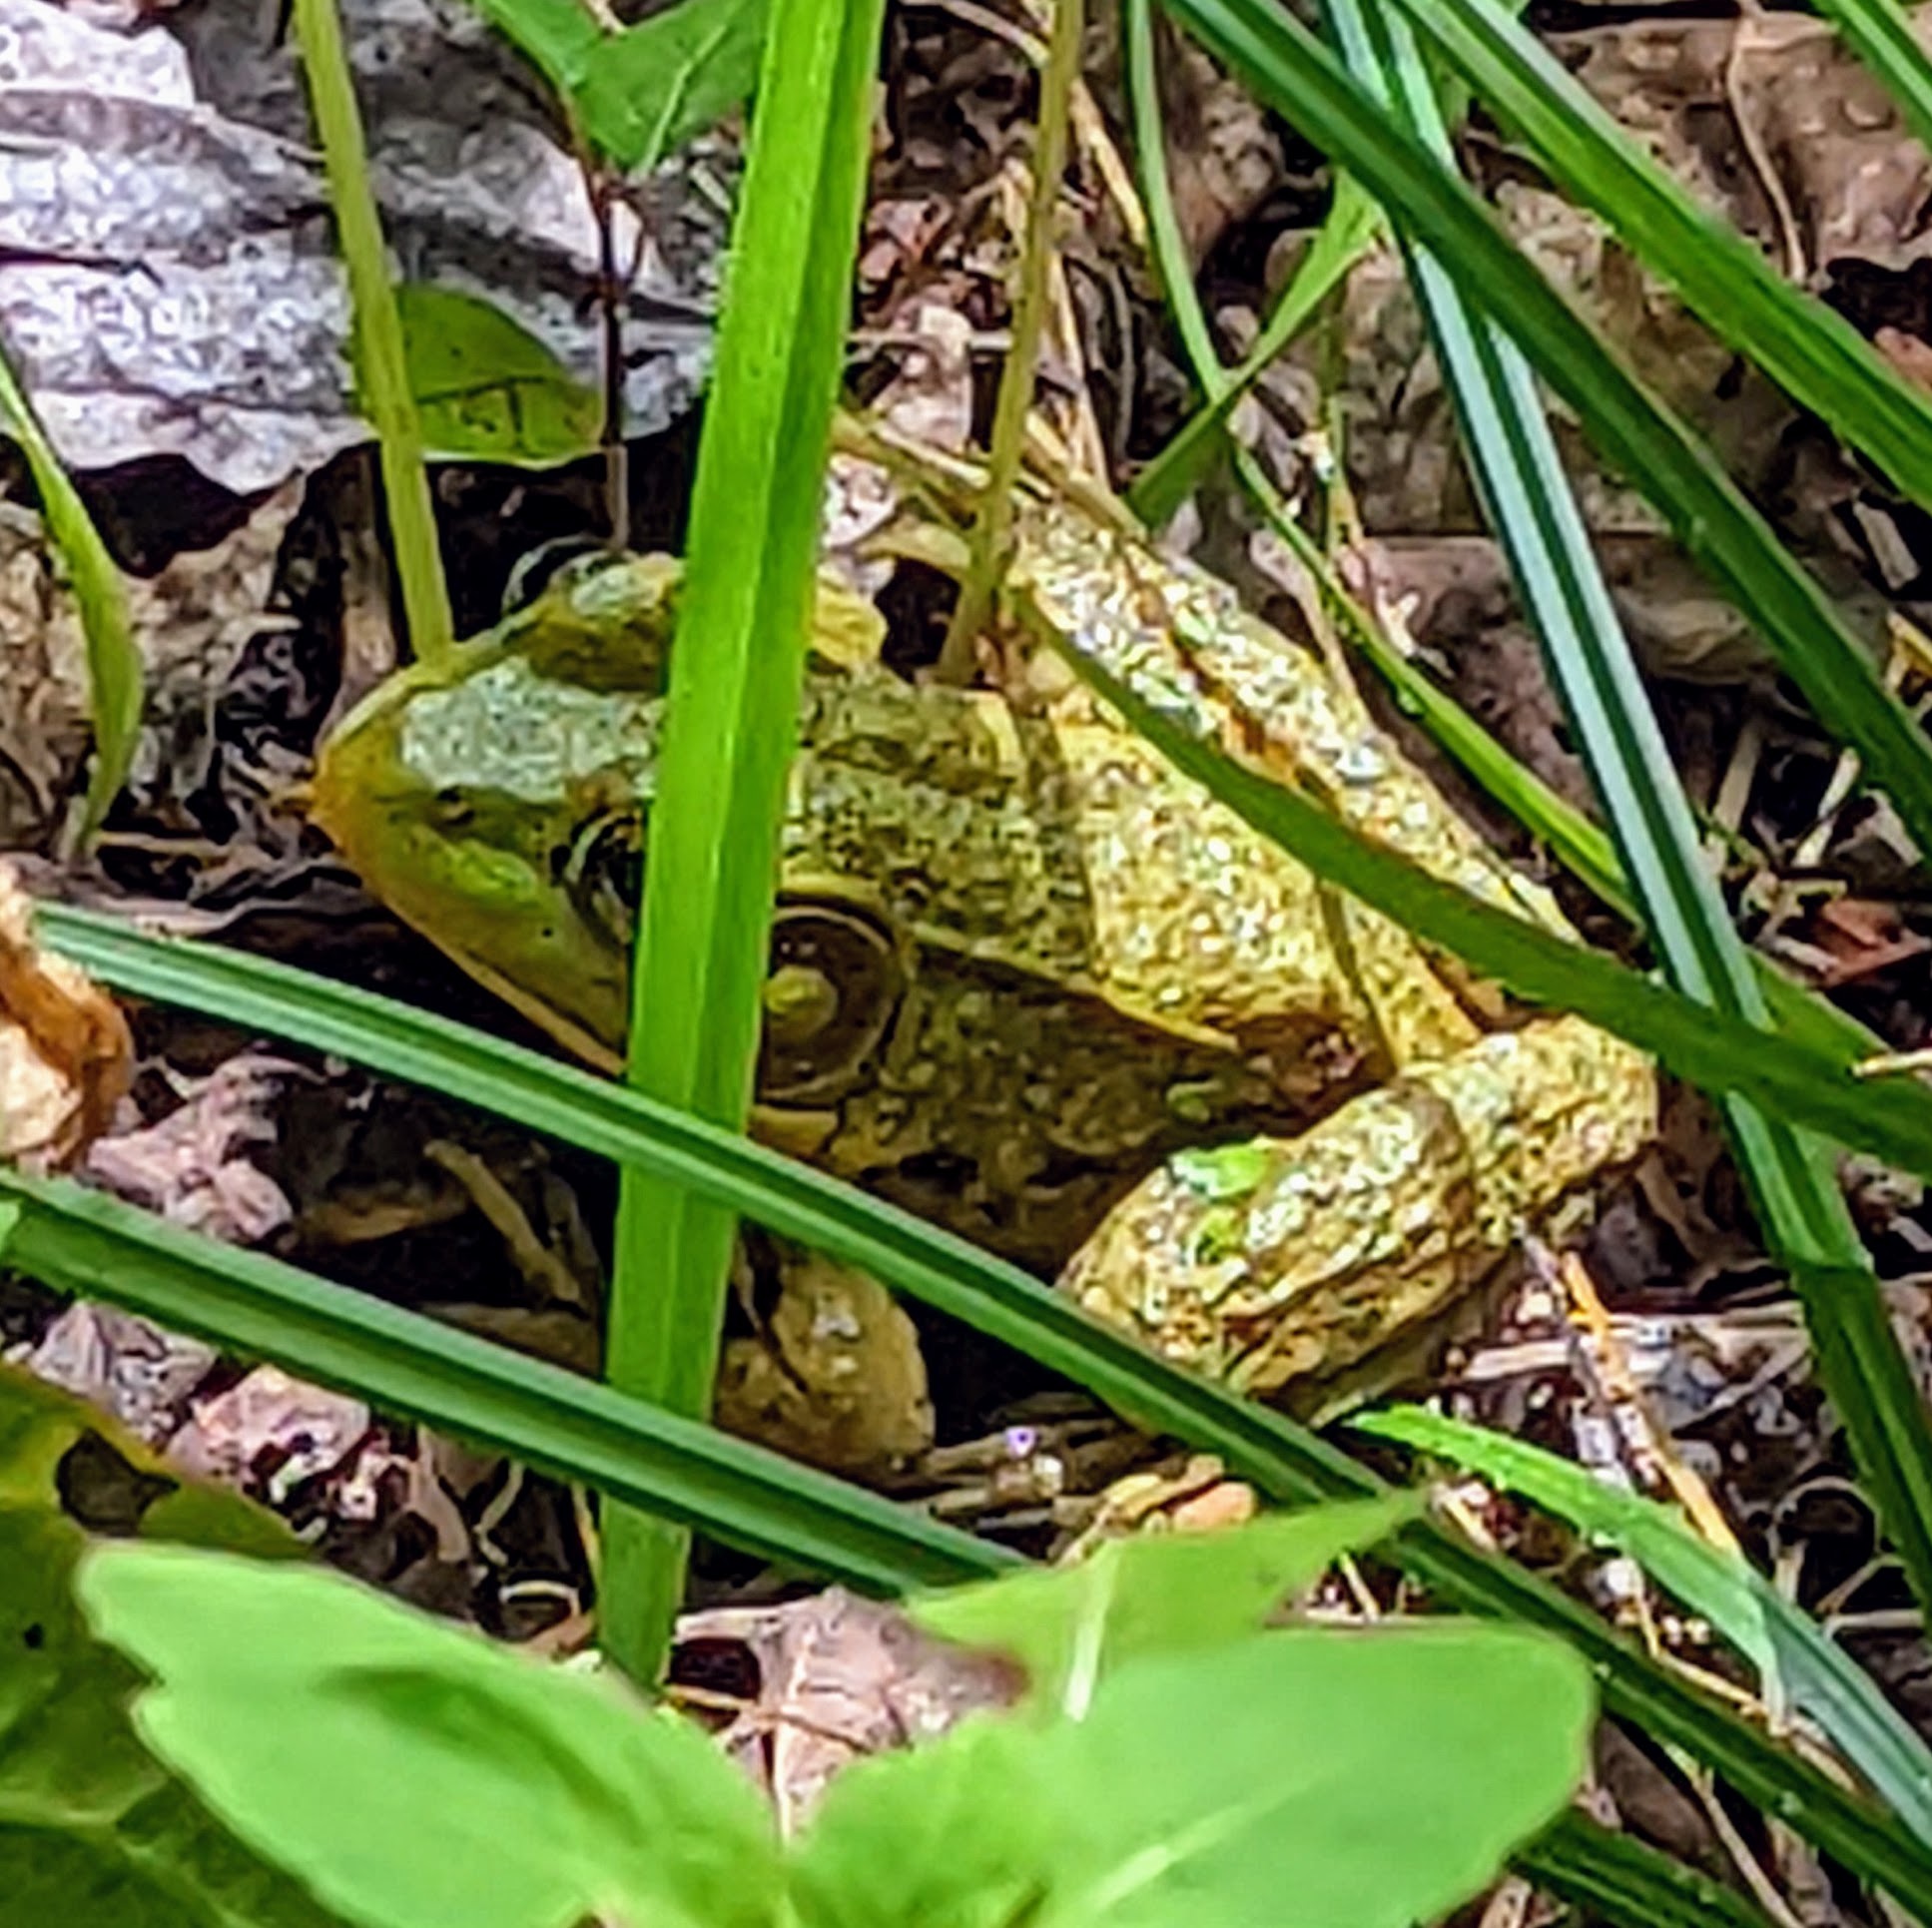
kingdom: Animalia
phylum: Chordata
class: Amphibia
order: Anura
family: Ranidae
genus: Lithobates
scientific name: Lithobates clamitans
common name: Green frog
